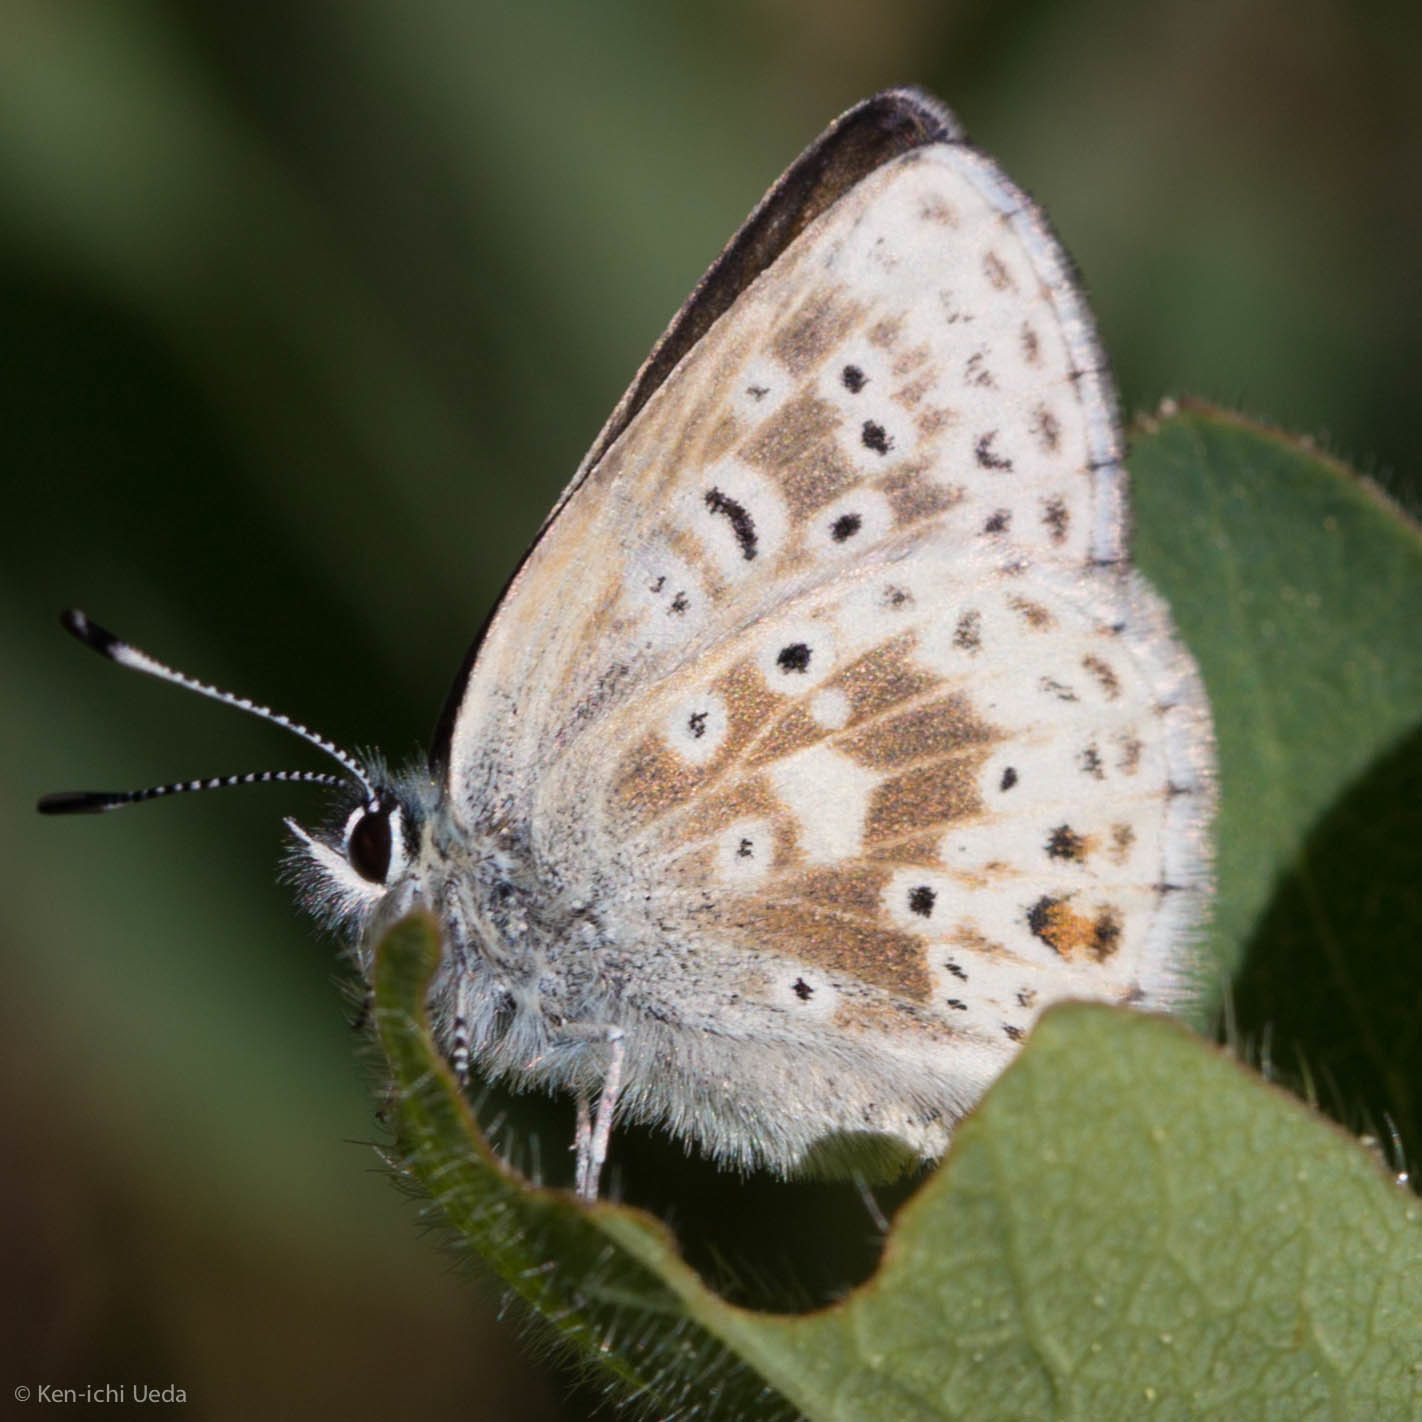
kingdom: Animalia
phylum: Arthropoda
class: Insecta
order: Lepidoptera
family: Lycaenidae
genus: Agriades
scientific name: Agriades podarce
